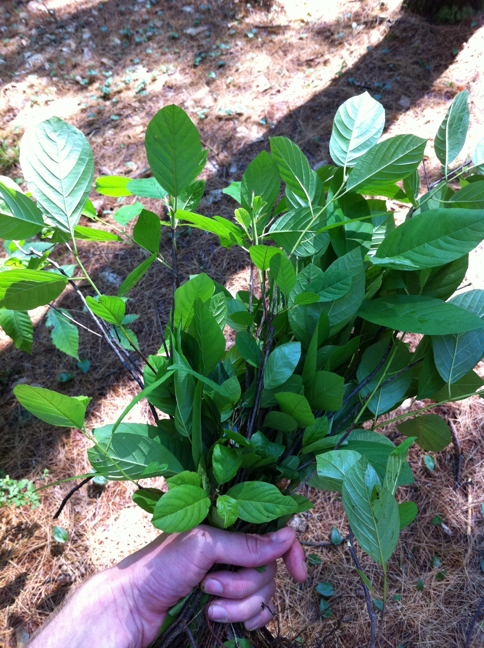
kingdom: Plantae
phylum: Tracheophyta
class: Magnoliopsida
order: Rosales
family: Rhamnaceae
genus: Frangula
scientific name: Frangula alnus
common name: Alder buckthorn
